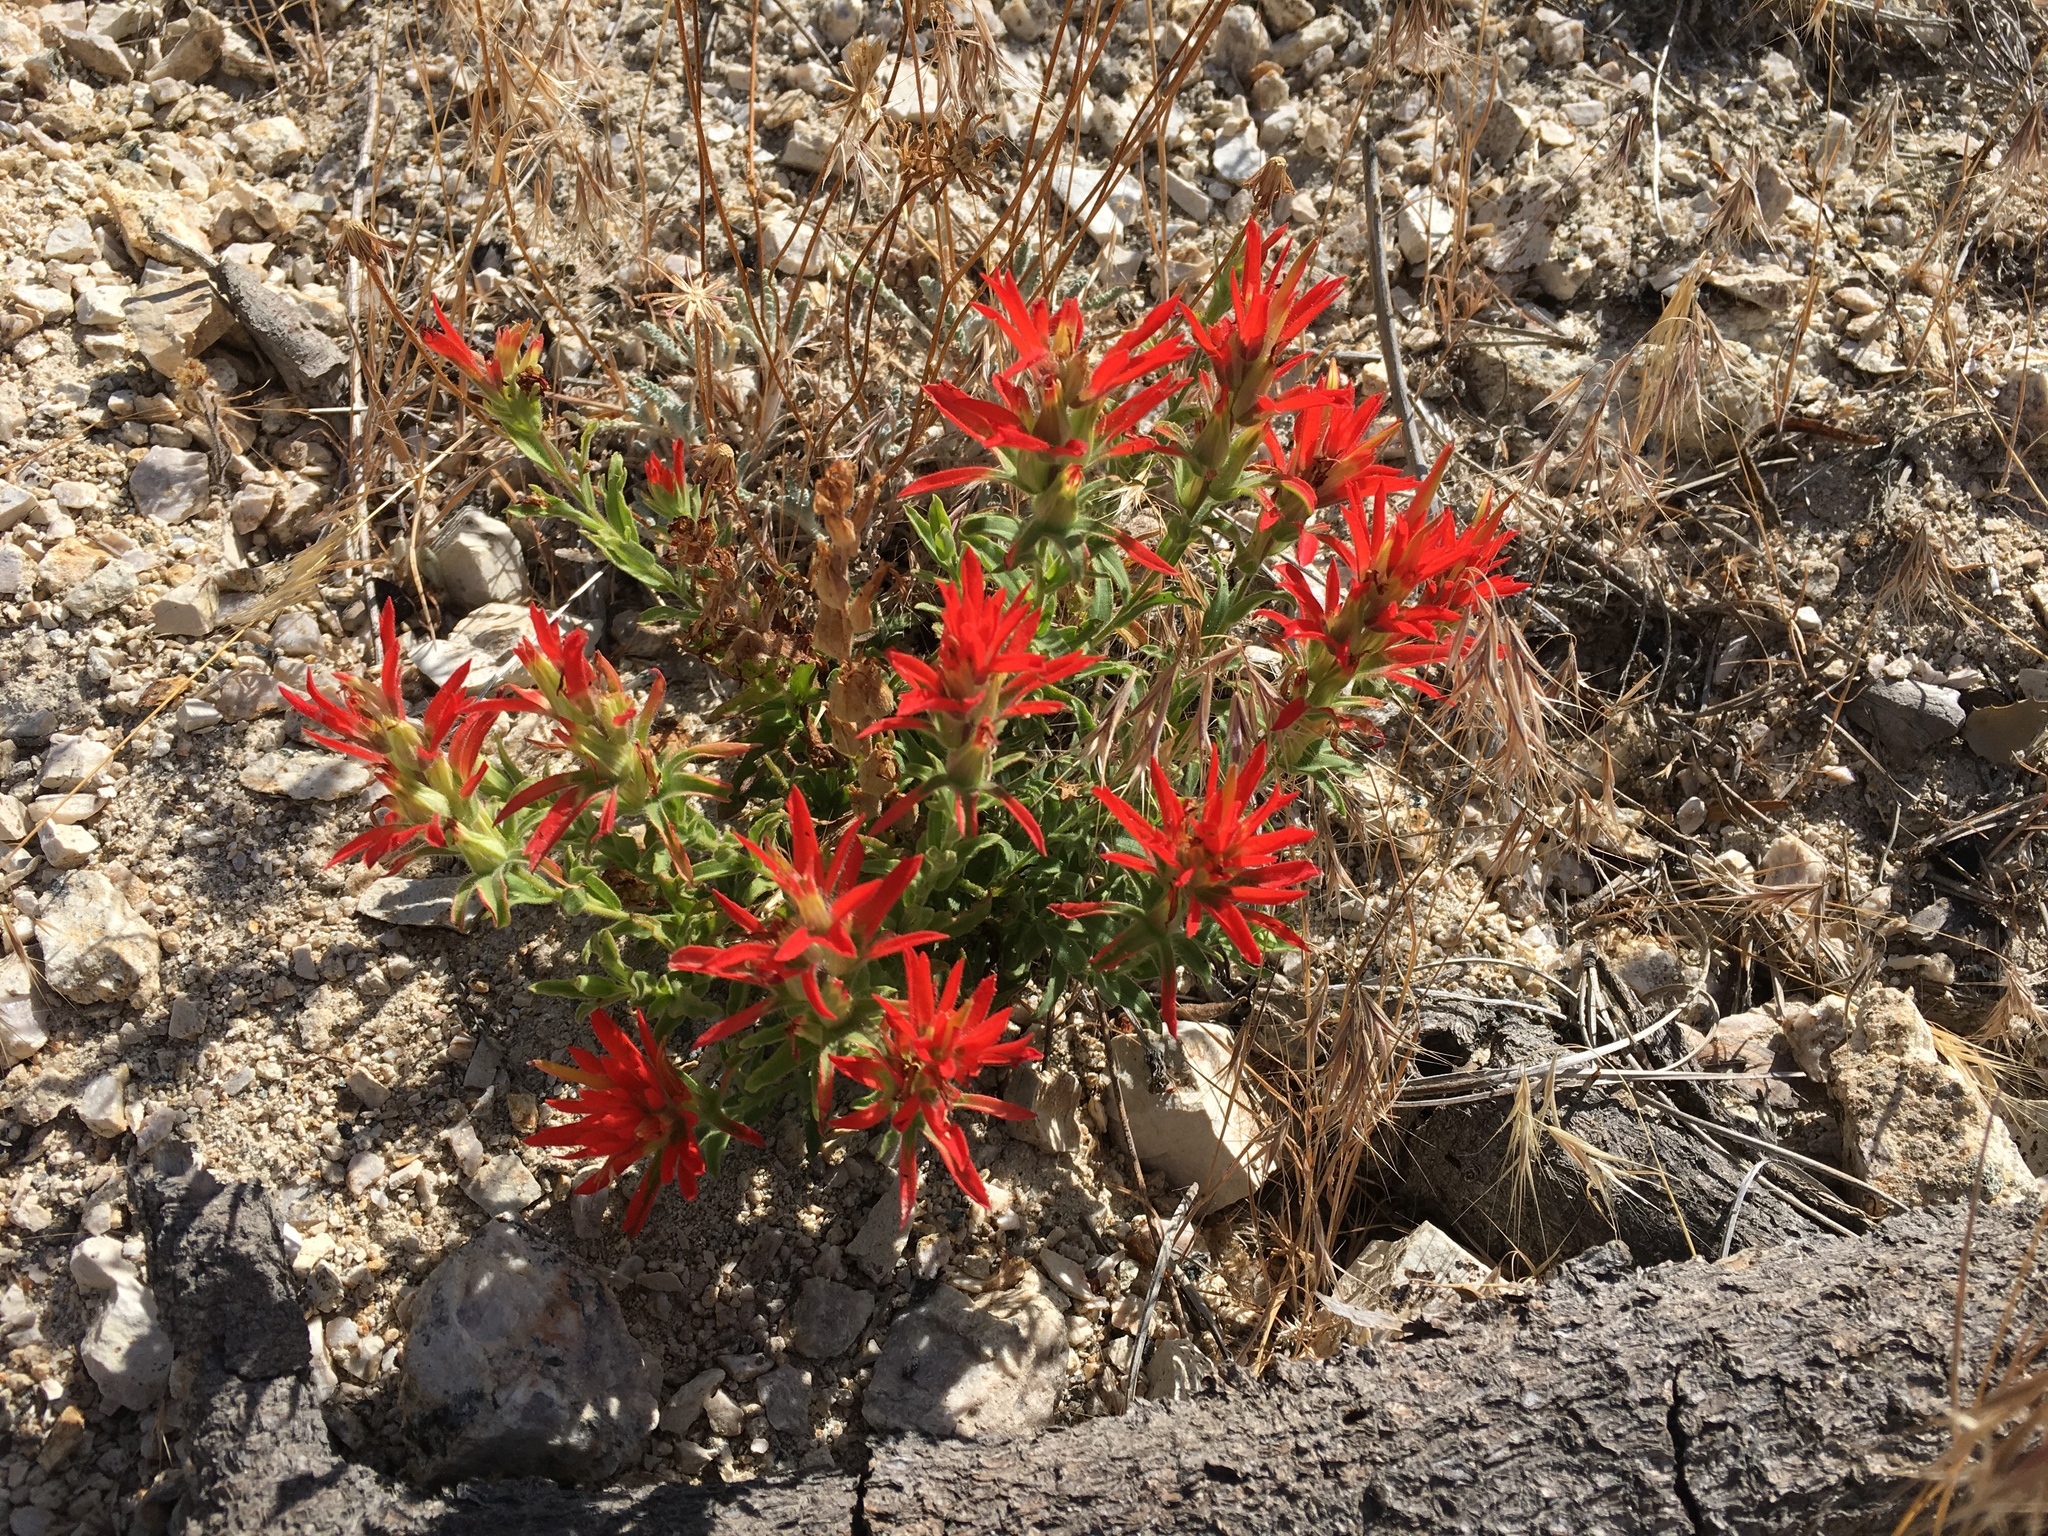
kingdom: Plantae
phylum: Tracheophyta
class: Magnoliopsida
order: Lamiales
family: Orobanchaceae
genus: Castilleja
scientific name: Castilleja
